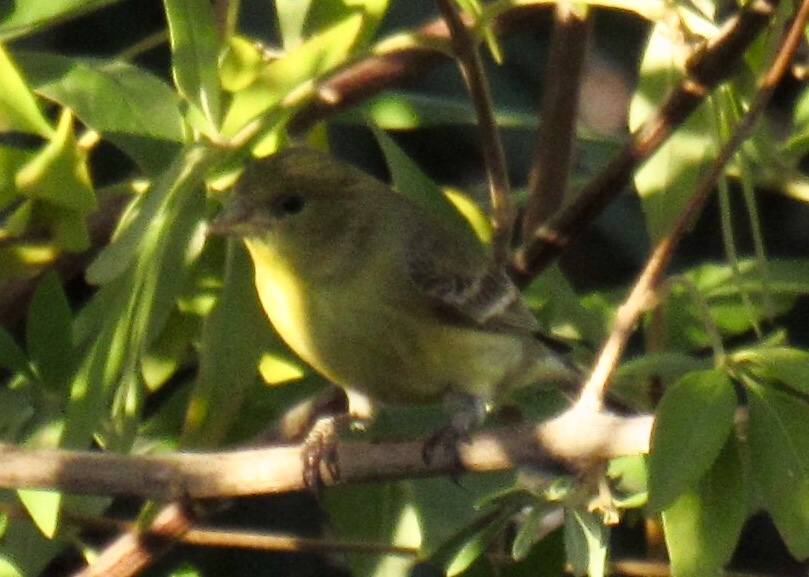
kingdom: Animalia
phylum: Chordata
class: Aves
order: Passeriformes
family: Fringillidae
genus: Spinus
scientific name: Spinus psaltria
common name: Lesser goldfinch
